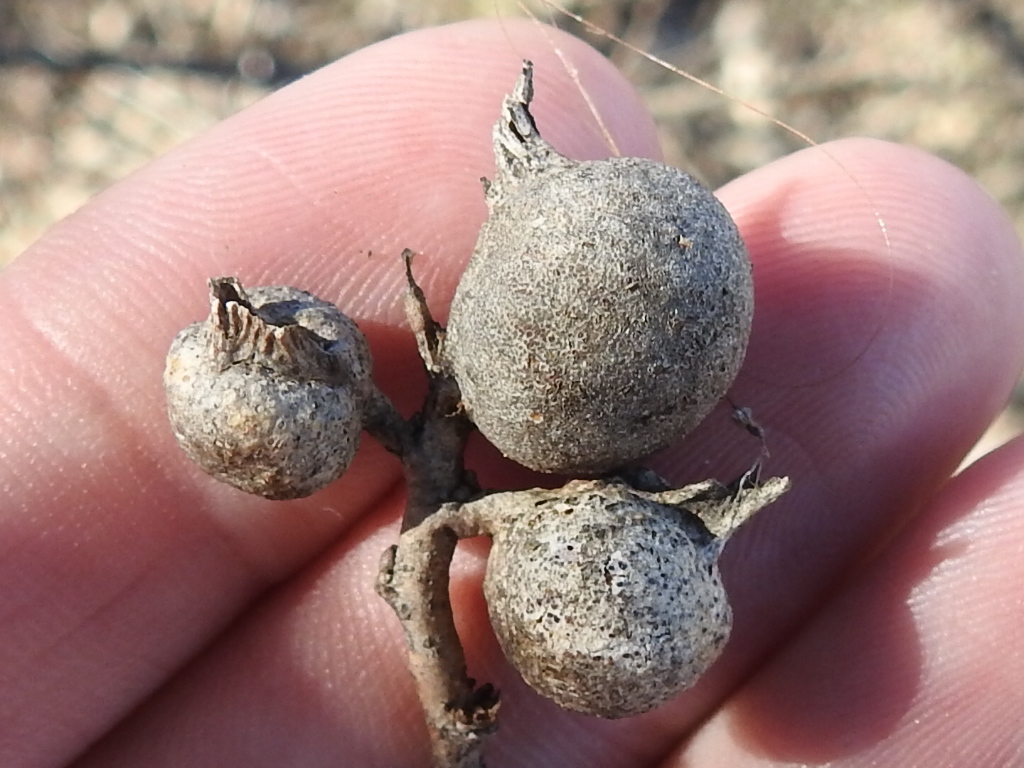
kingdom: Animalia
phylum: Arthropoda
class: Insecta
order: Hemiptera
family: Aphalaridae
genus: Pachypsylla
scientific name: Pachypsylla venusta
